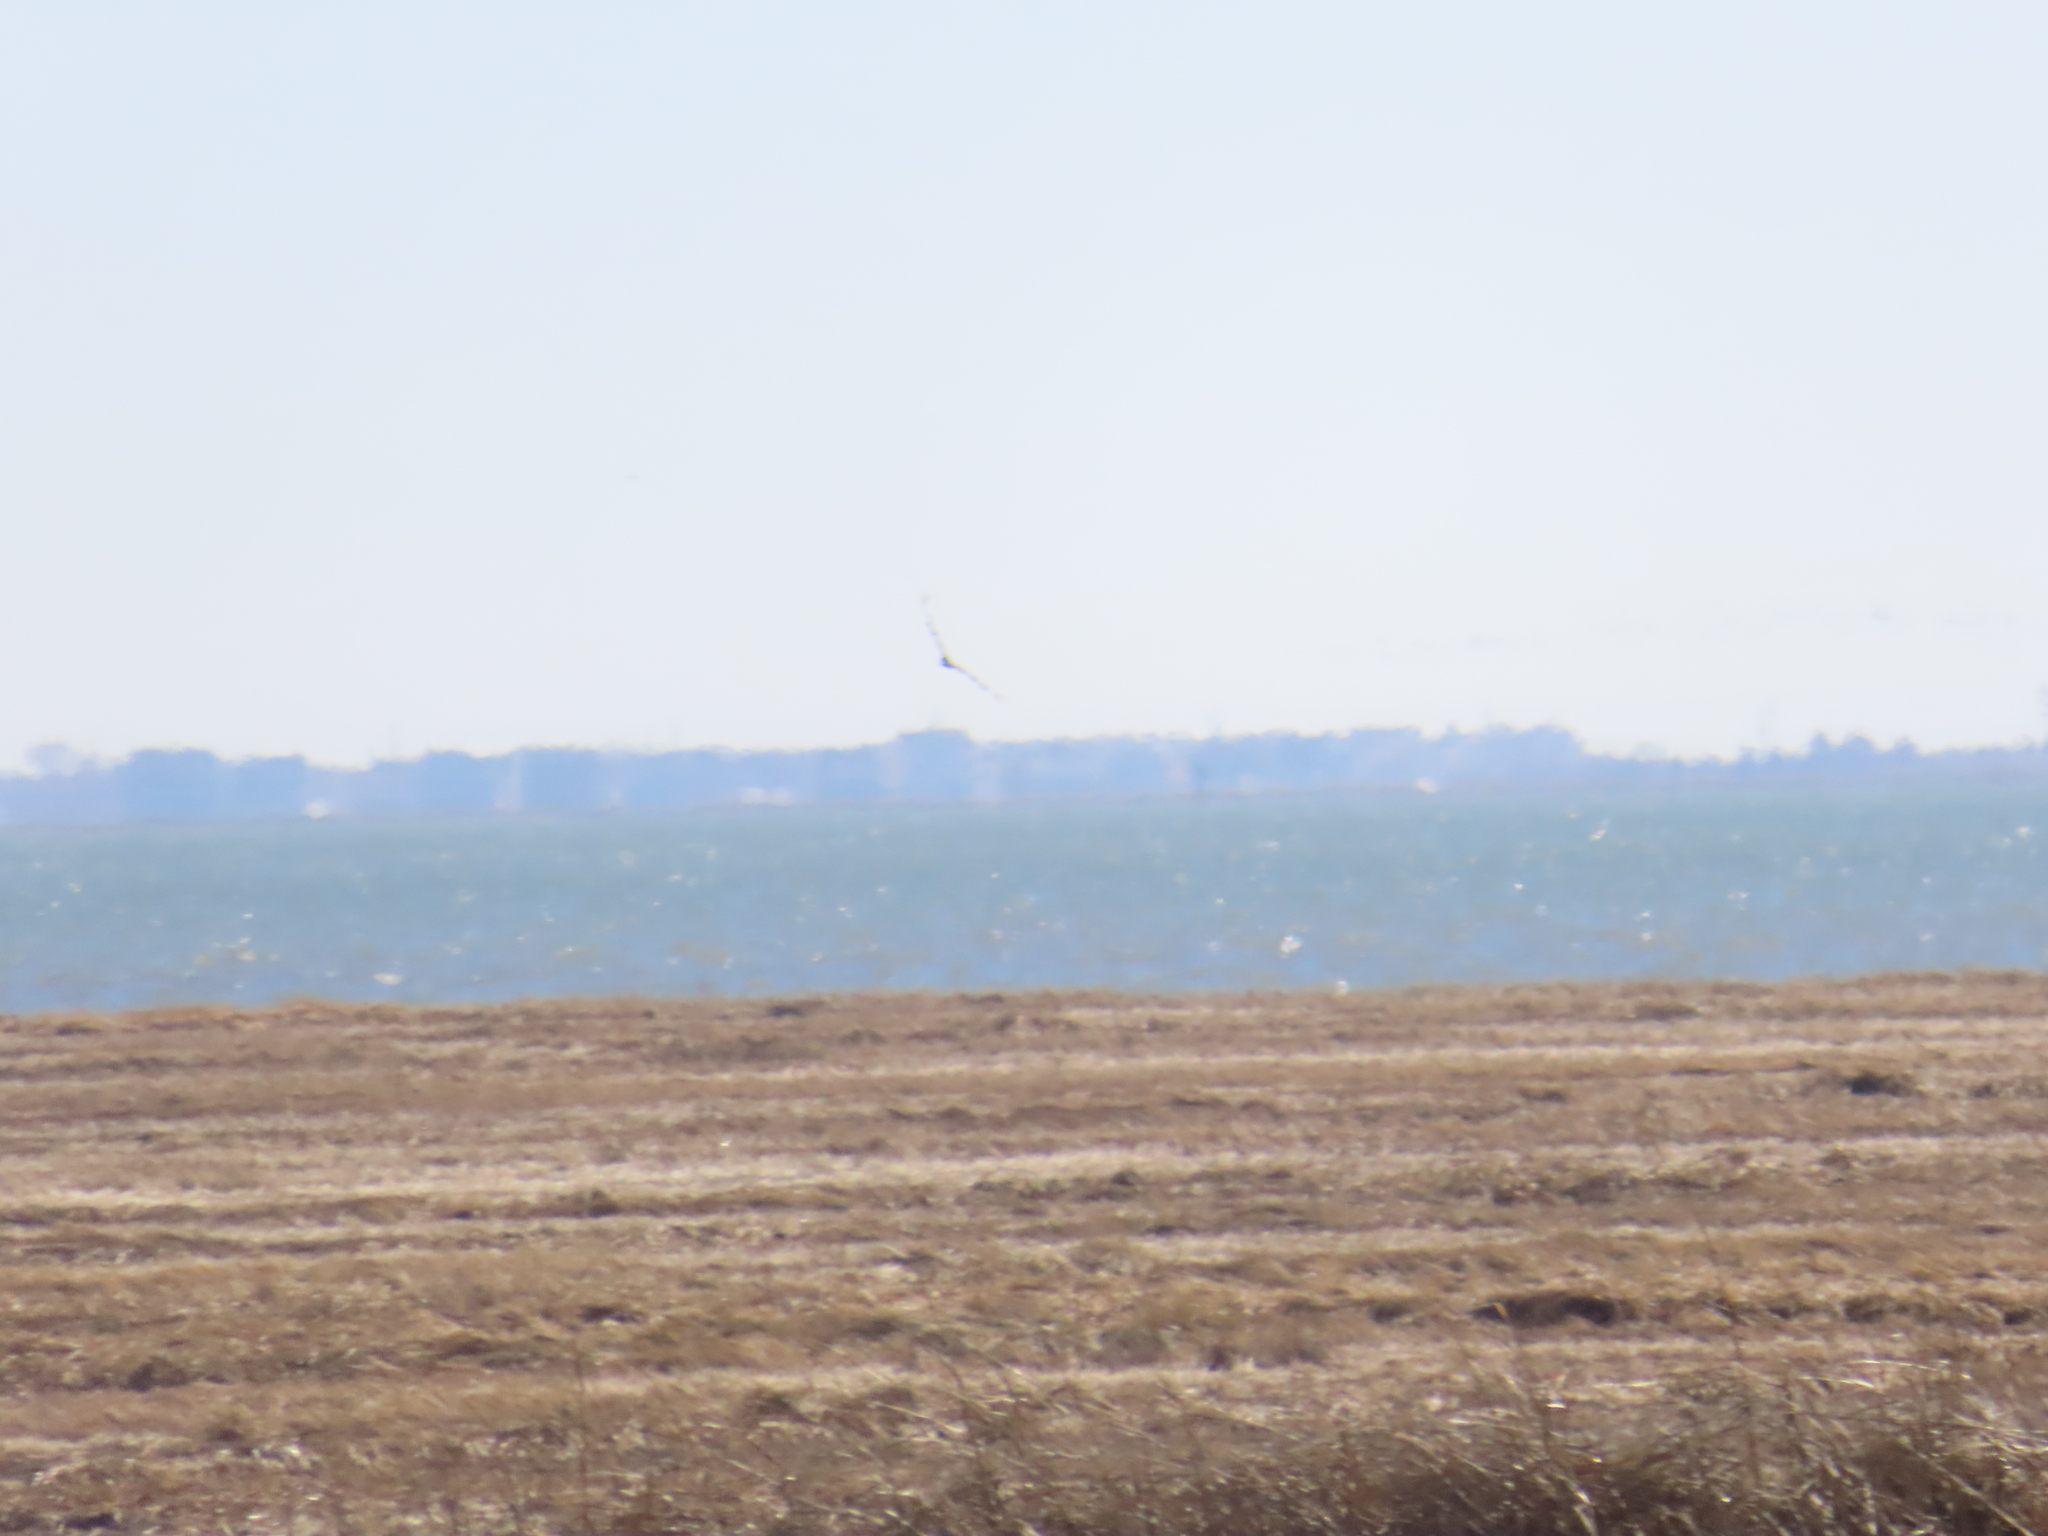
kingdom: Animalia
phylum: Chordata
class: Aves
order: Accipitriformes
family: Cathartidae
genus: Cathartes
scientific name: Cathartes aura
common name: Turkey vulture
